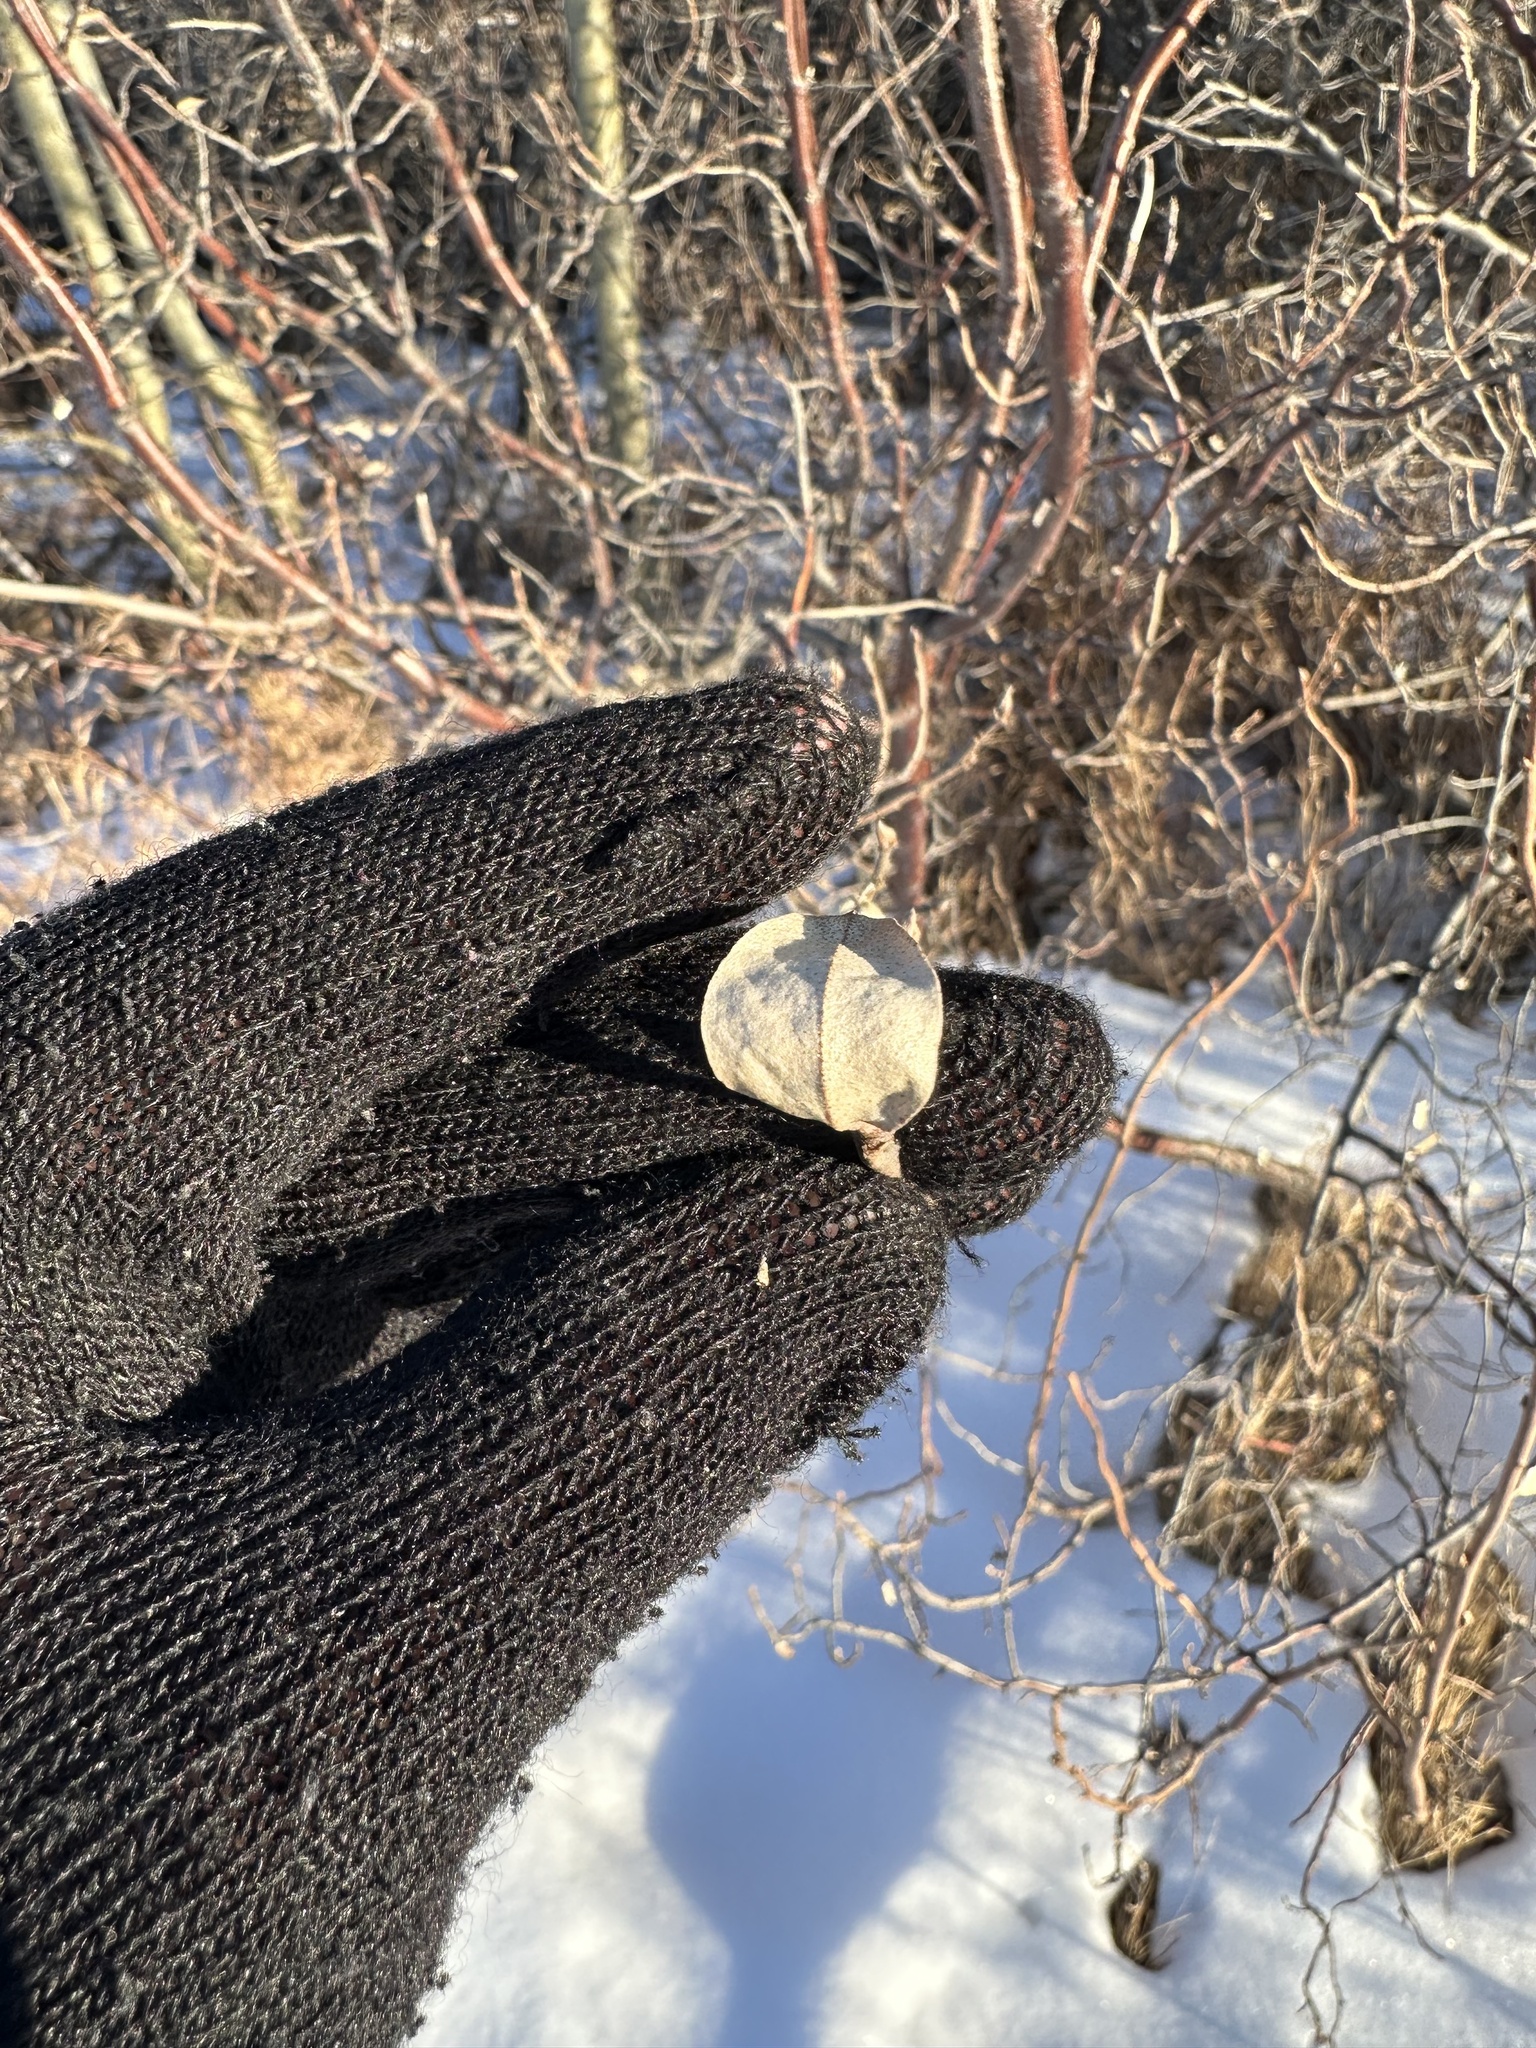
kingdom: Plantae
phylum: Tracheophyta
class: Magnoliopsida
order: Rosales
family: Elaeagnaceae
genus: Elaeagnus
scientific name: Elaeagnus commutata
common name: Silverberry
